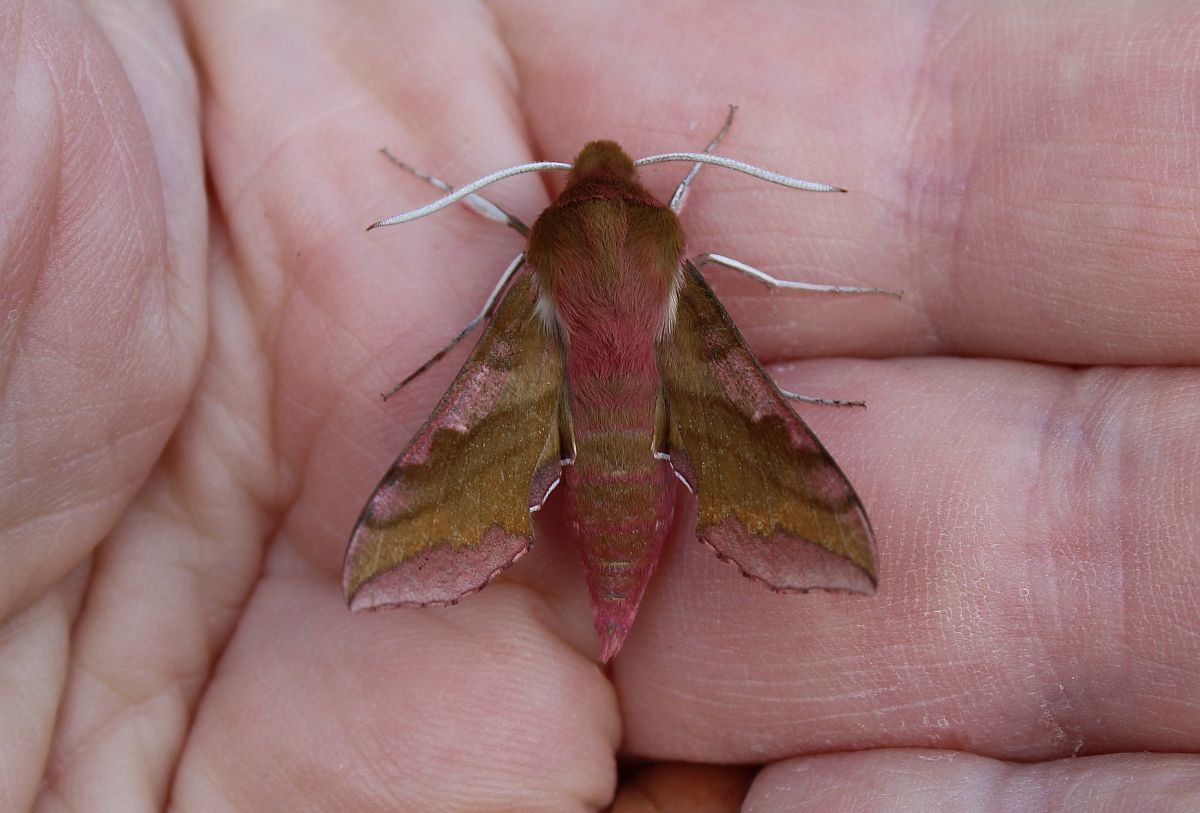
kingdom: Animalia
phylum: Arthropoda
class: Insecta
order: Lepidoptera
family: Sphingidae
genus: Deilephila
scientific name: Deilephila porcellus
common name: Small elephant hawk-moth
